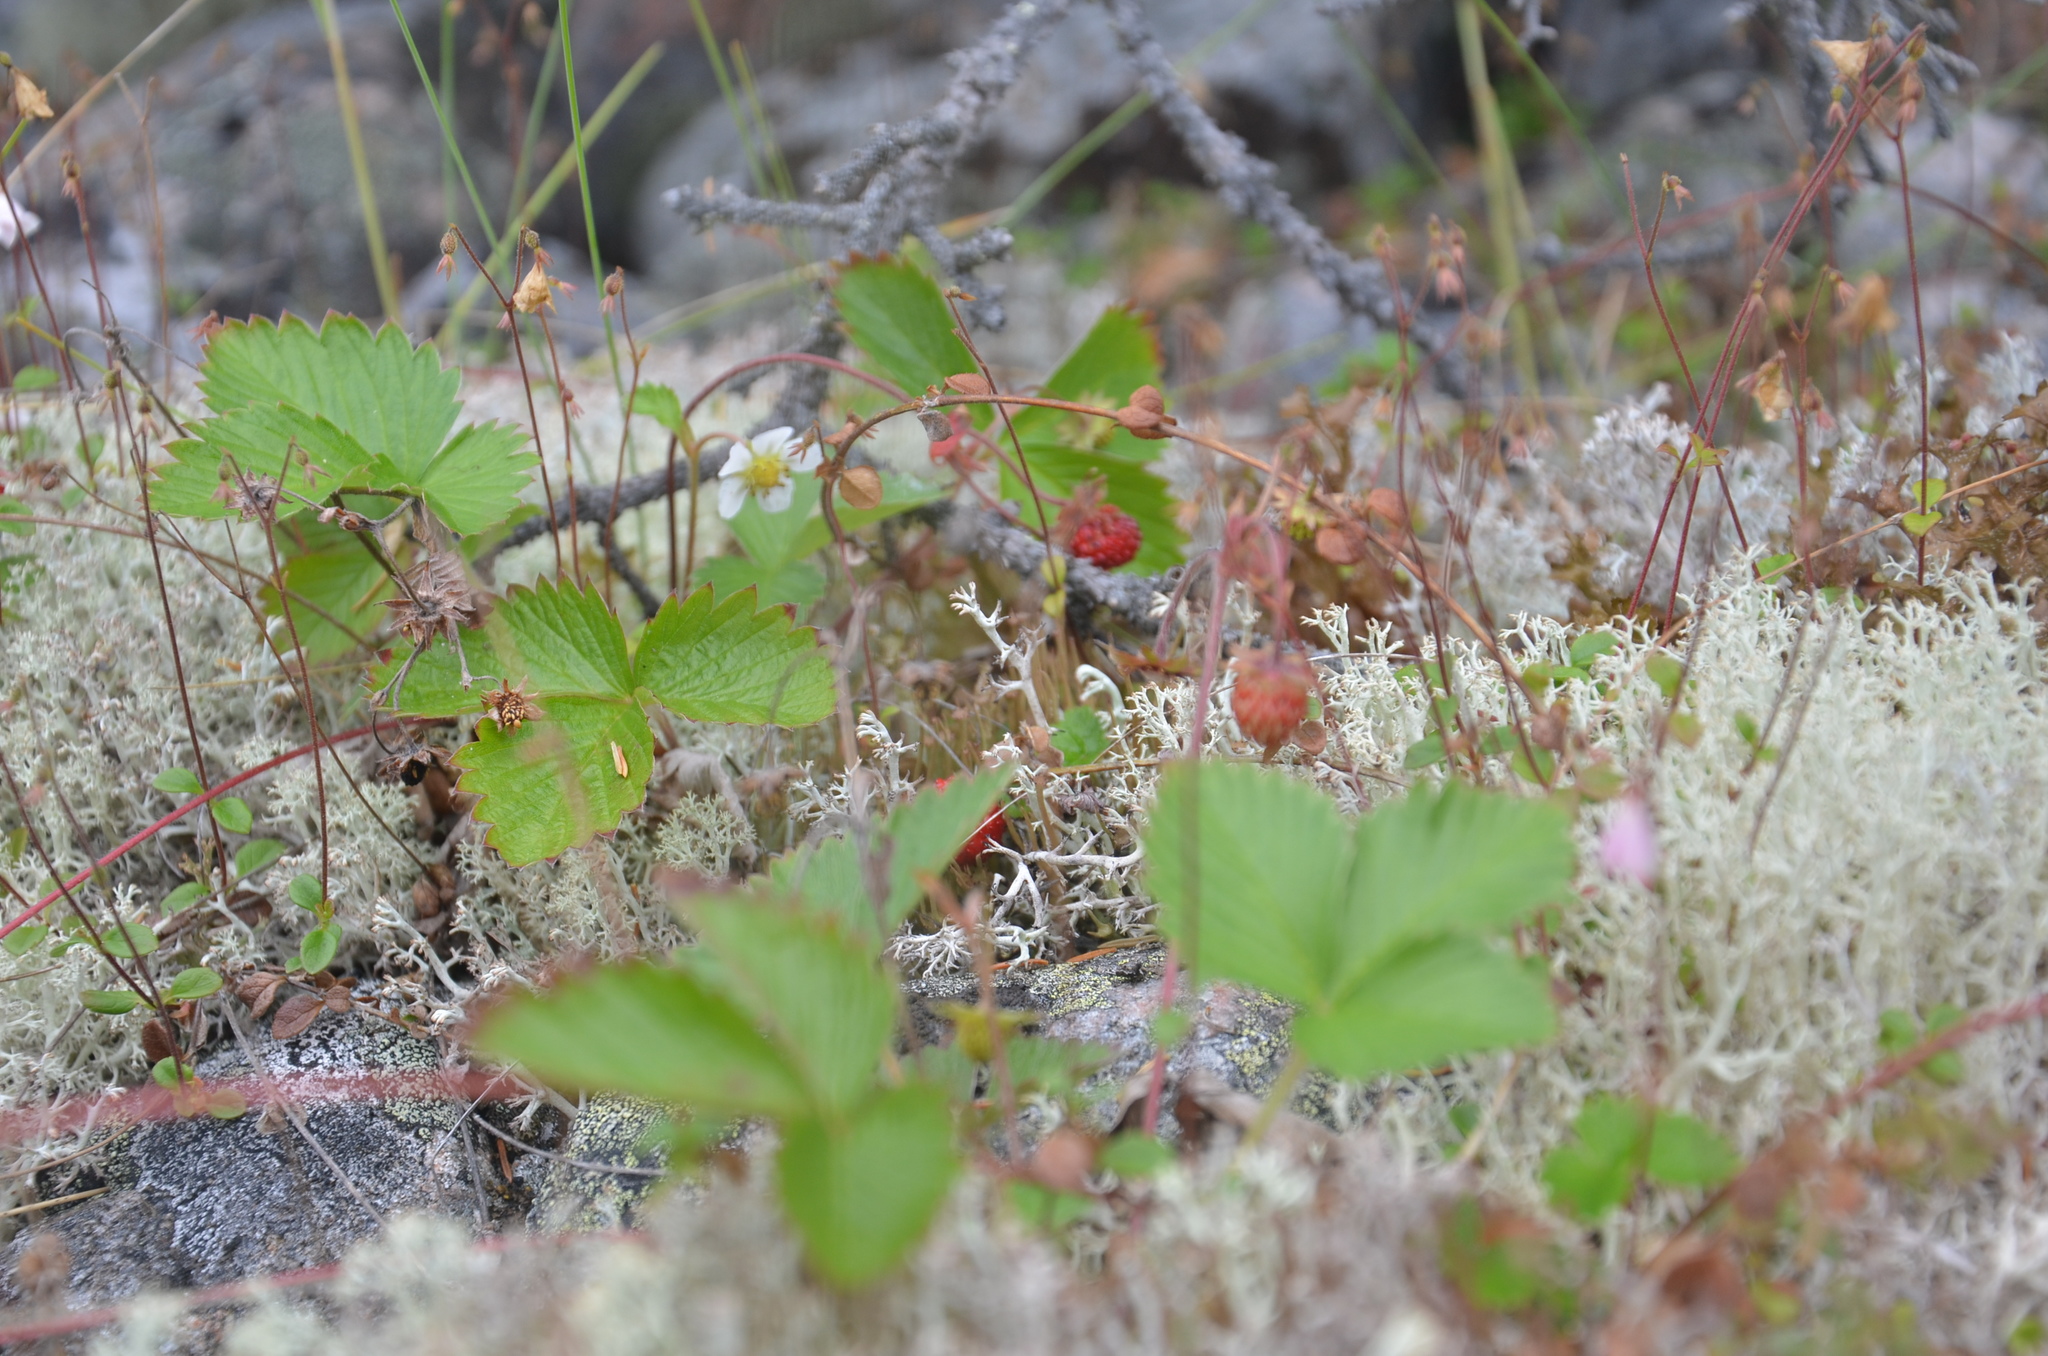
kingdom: Plantae
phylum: Tracheophyta
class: Magnoliopsida
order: Rosales
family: Rosaceae
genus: Fragaria
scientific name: Fragaria vesca
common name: Wild strawberry
